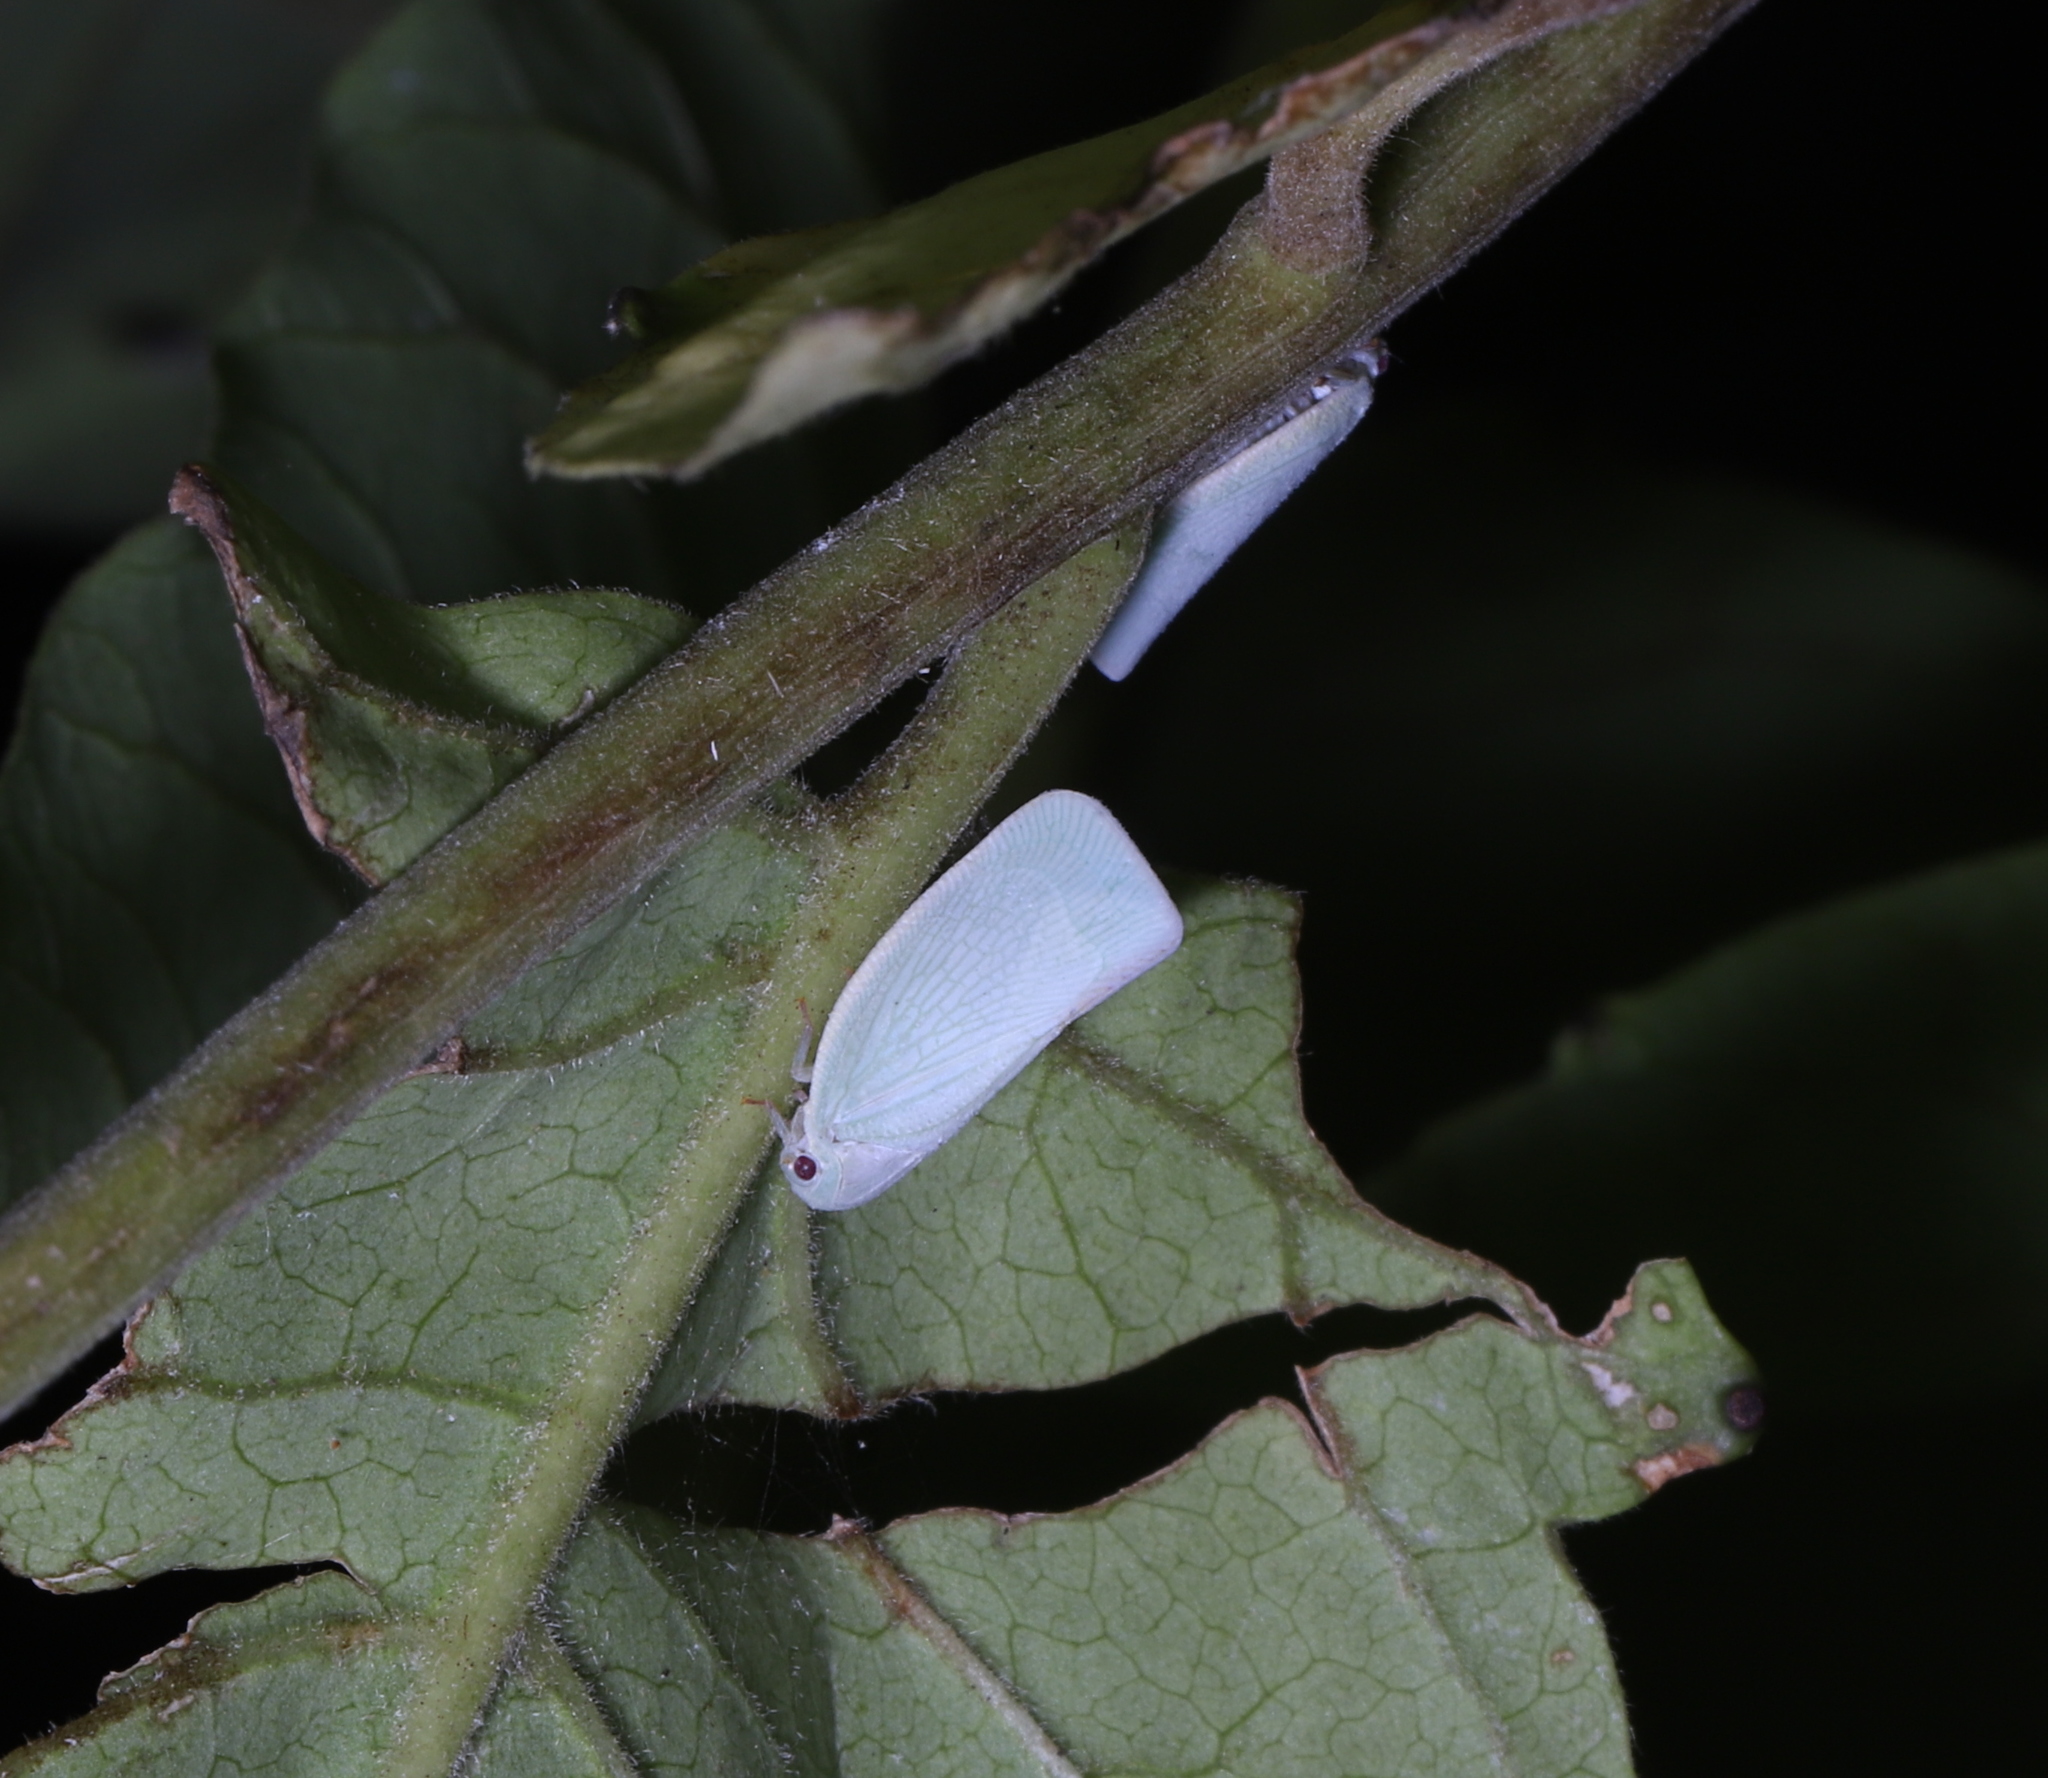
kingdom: Animalia
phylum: Arthropoda
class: Insecta
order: Hemiptera
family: Flatidae
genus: Flatormenis
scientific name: Flatormenis proxima
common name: Northern flatid planthopper
